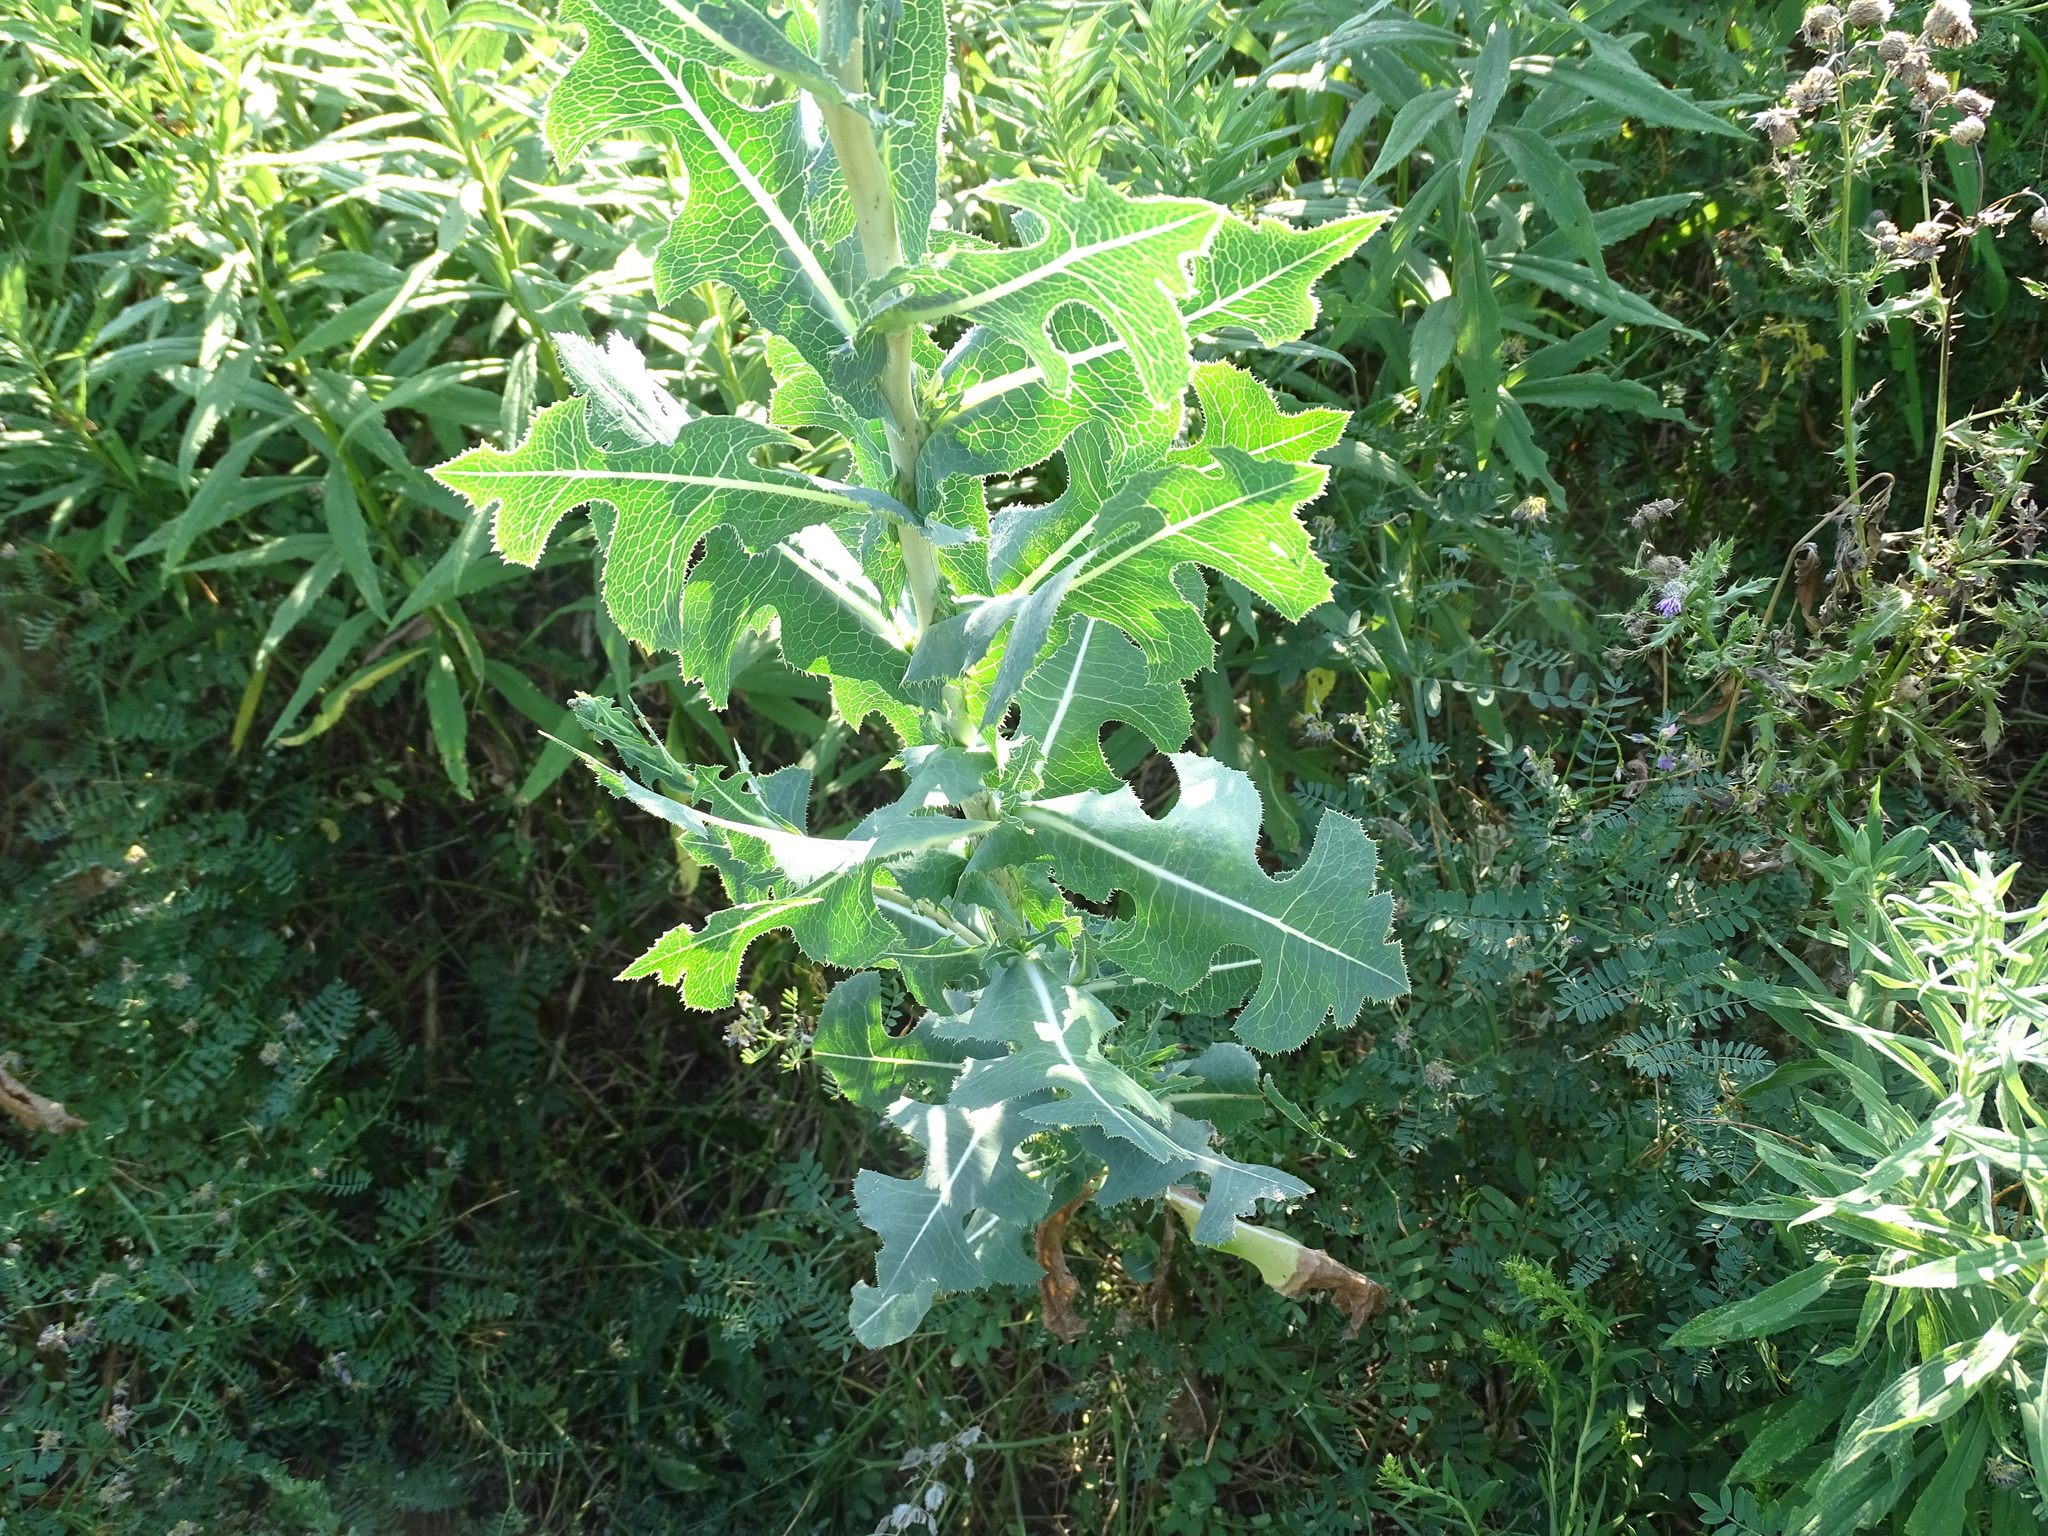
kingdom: Plantae
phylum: Tracheophyta
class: Magnoliopsida
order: Asterales
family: Asteraceae
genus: Lactuca
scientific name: Lactuca serriola
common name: Prickly lettuce
